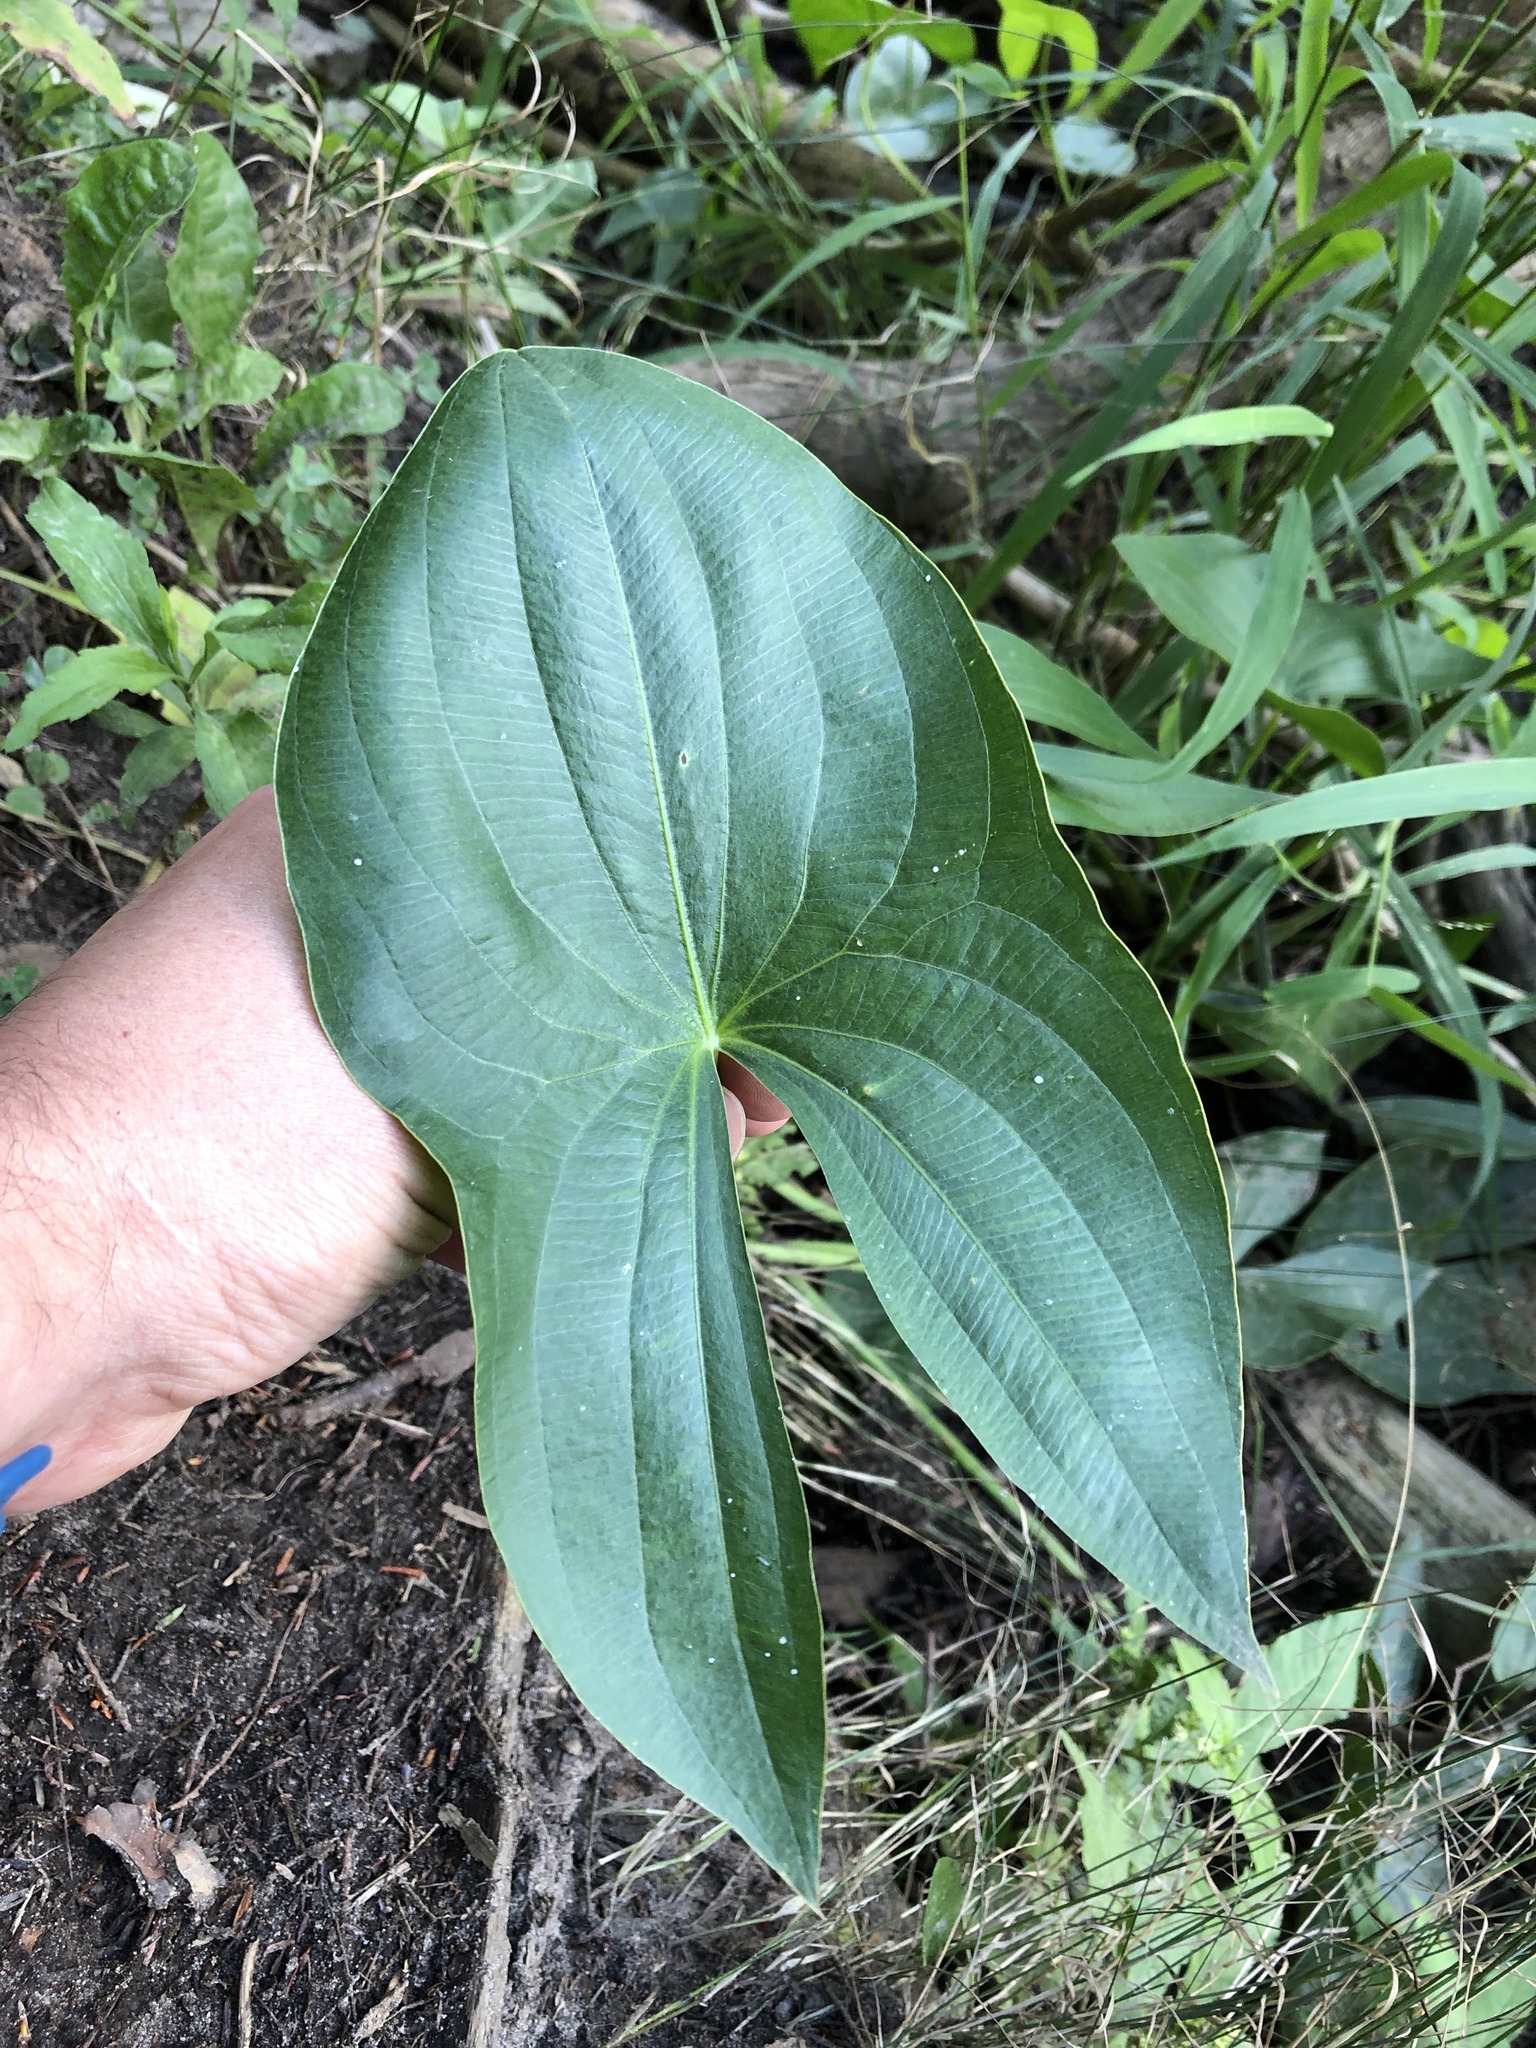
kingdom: Plantae
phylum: Tracheophyta
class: Liliopsida
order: Alismatales
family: Alismataceae
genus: Sagittaria
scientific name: Sagittaria latifolia
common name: Duck-potato
